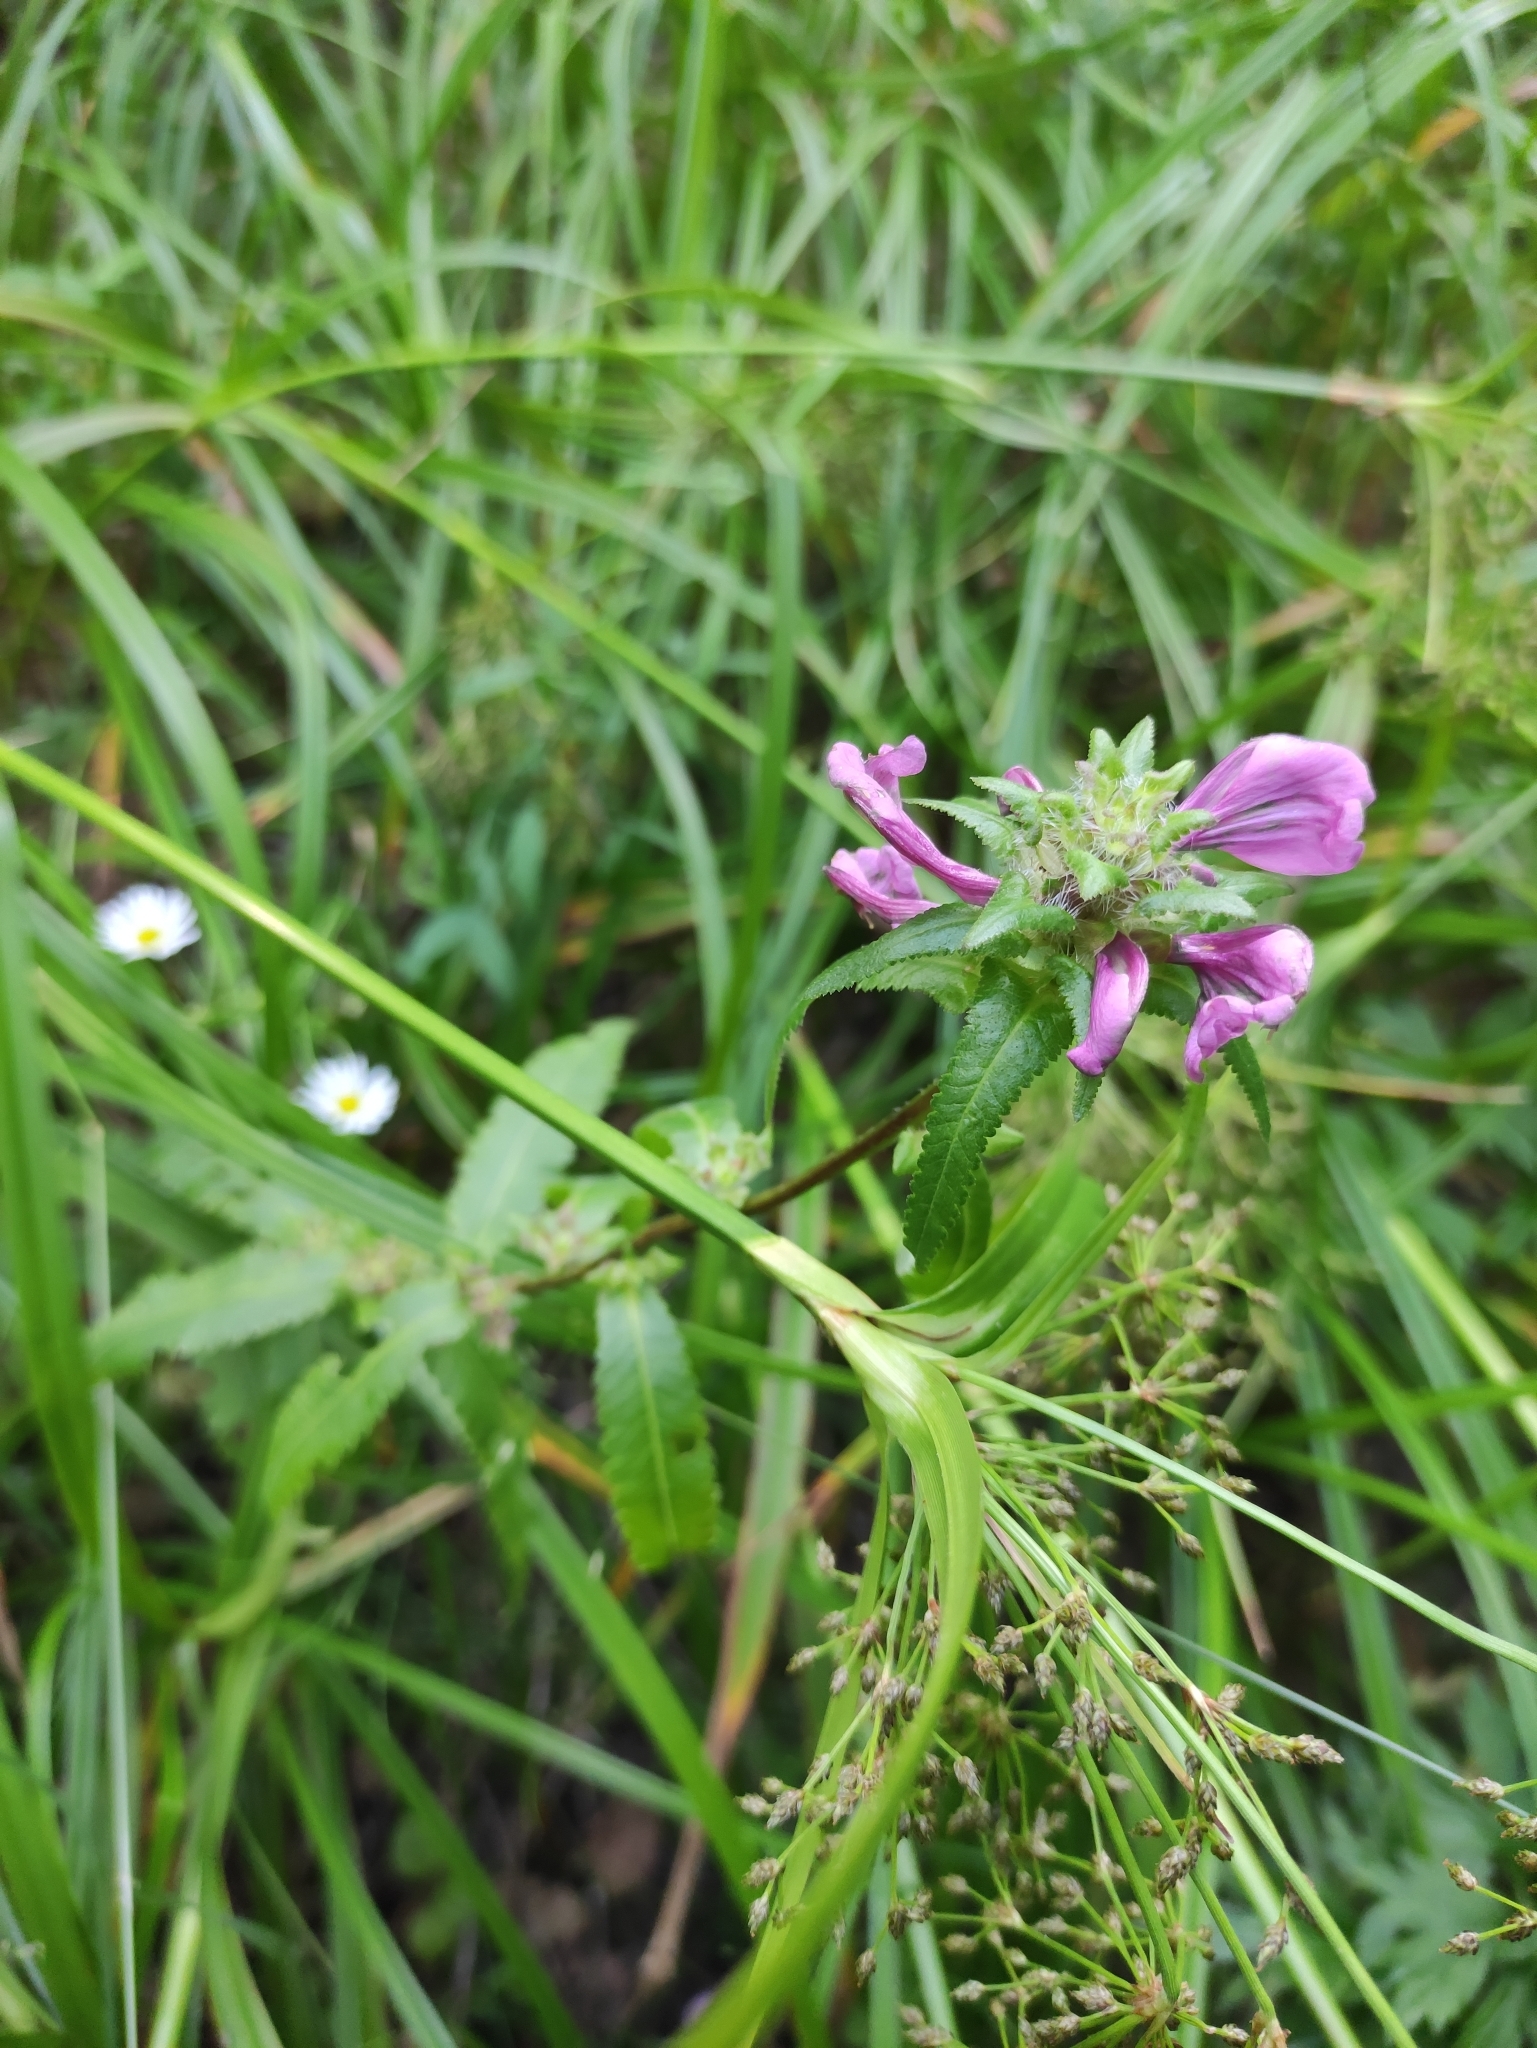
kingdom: Plantae
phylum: Tracheophyta
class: Magnoliopsida
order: Lamiales
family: Orobanchaceae
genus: Pedicularis
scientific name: Pedicularis resupinata
